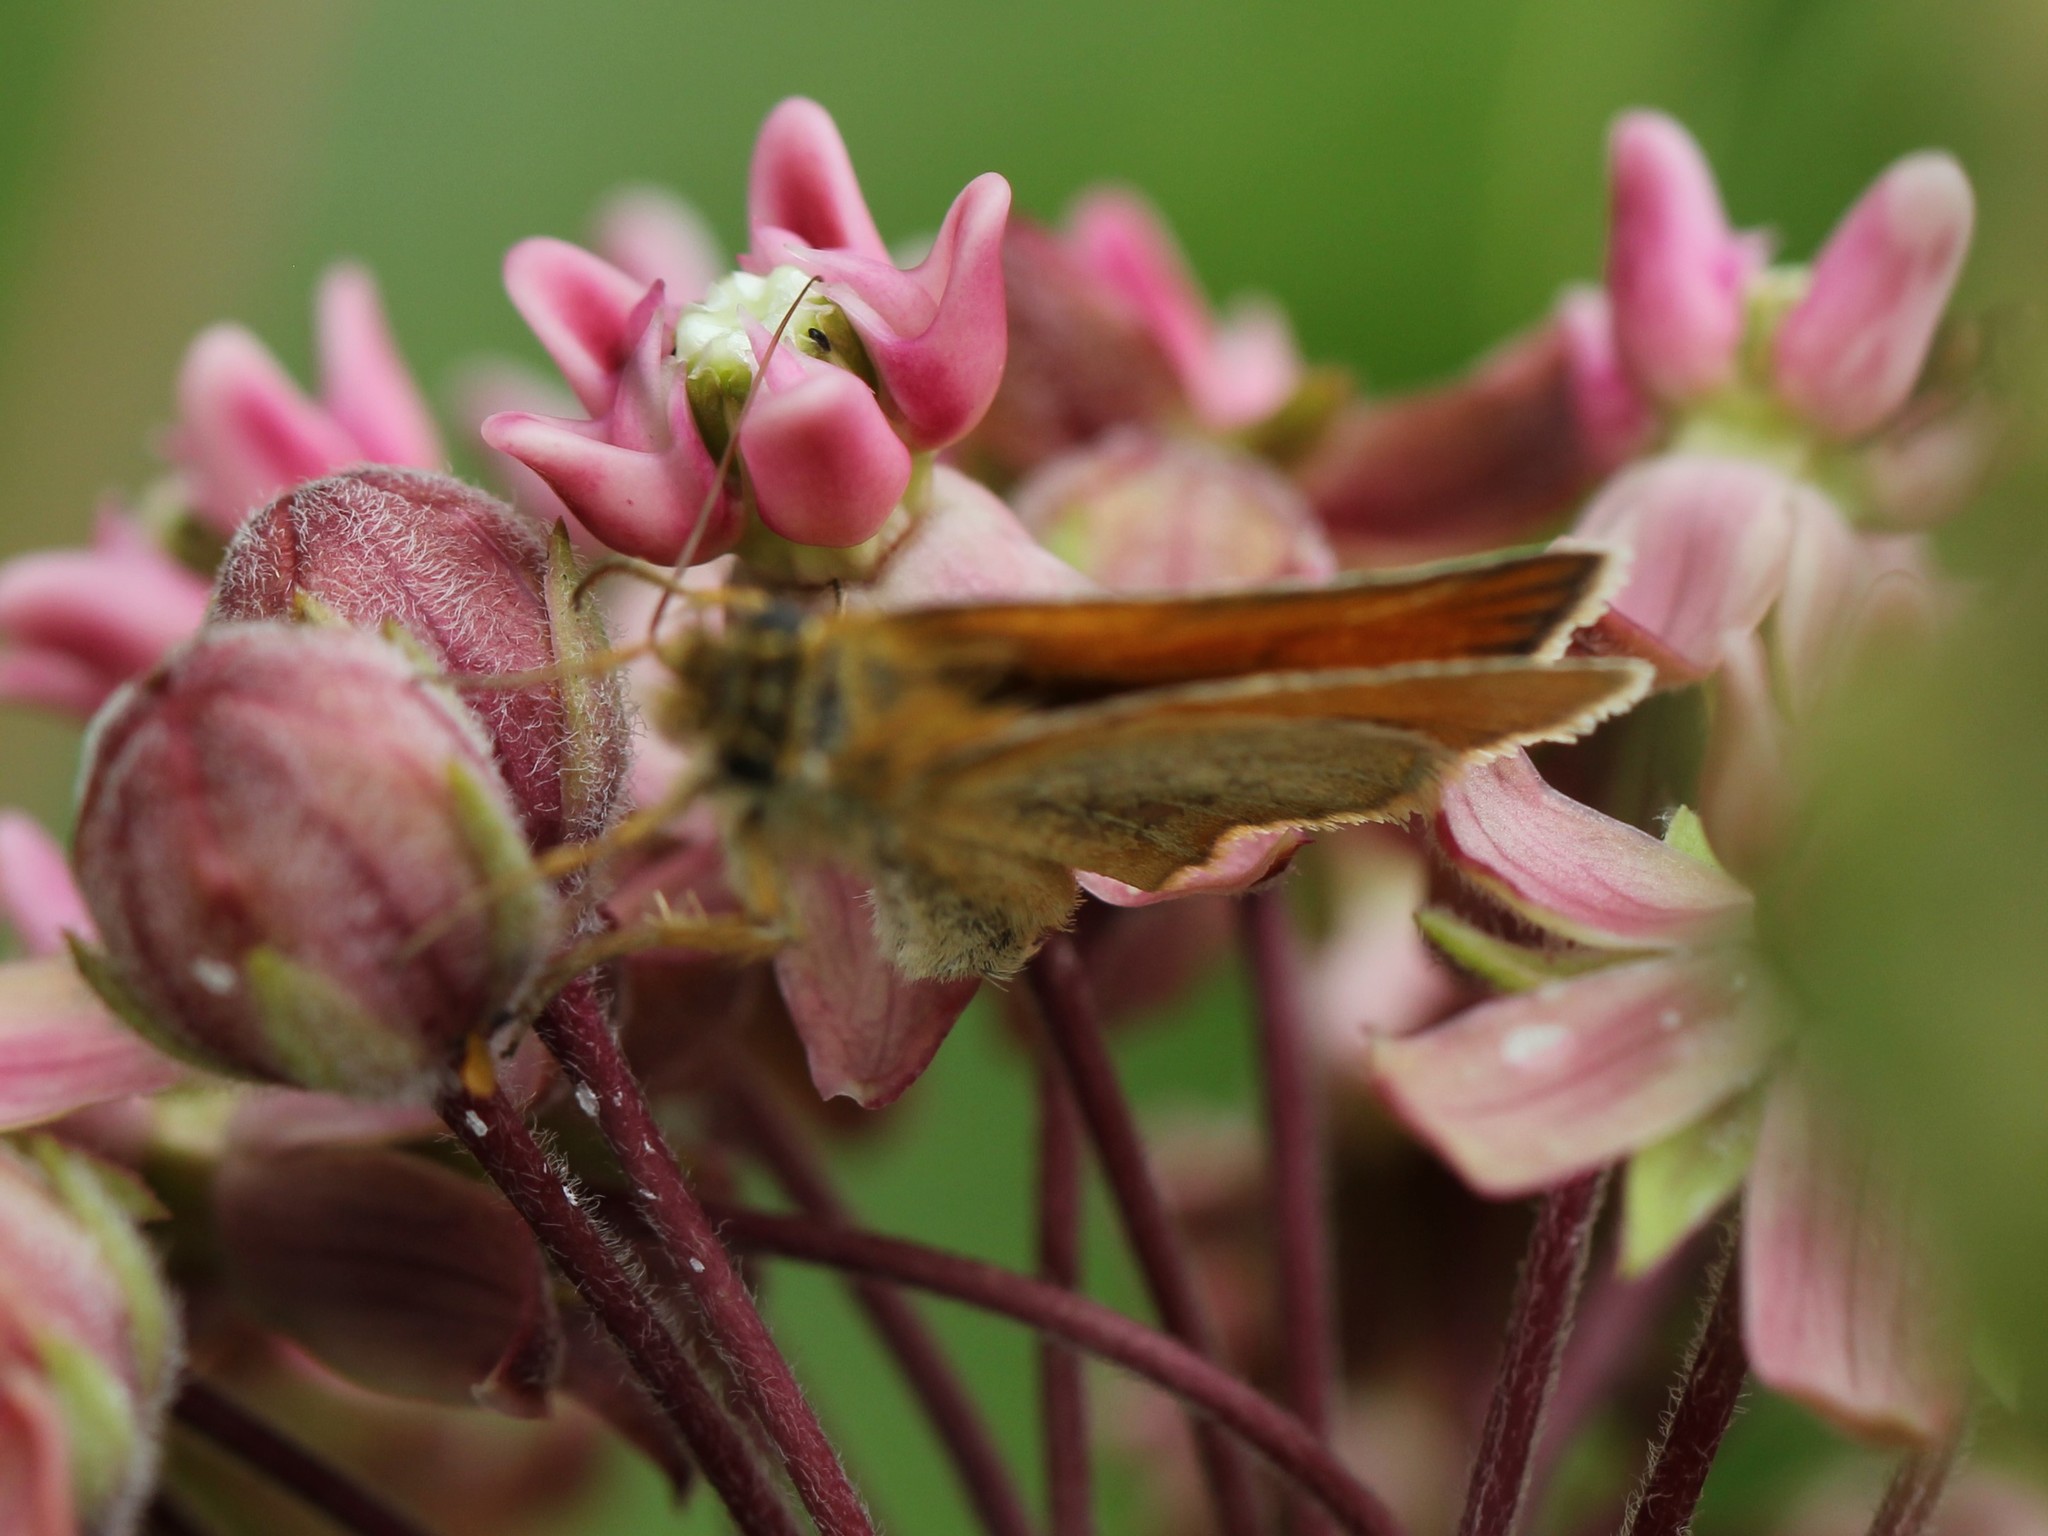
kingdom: Animalia
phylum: Arthropoda
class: Insecta
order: Lepidoptera
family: Hesperiidae
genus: Thymelicus
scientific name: Thymelicus lineola
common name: Essex skipper
